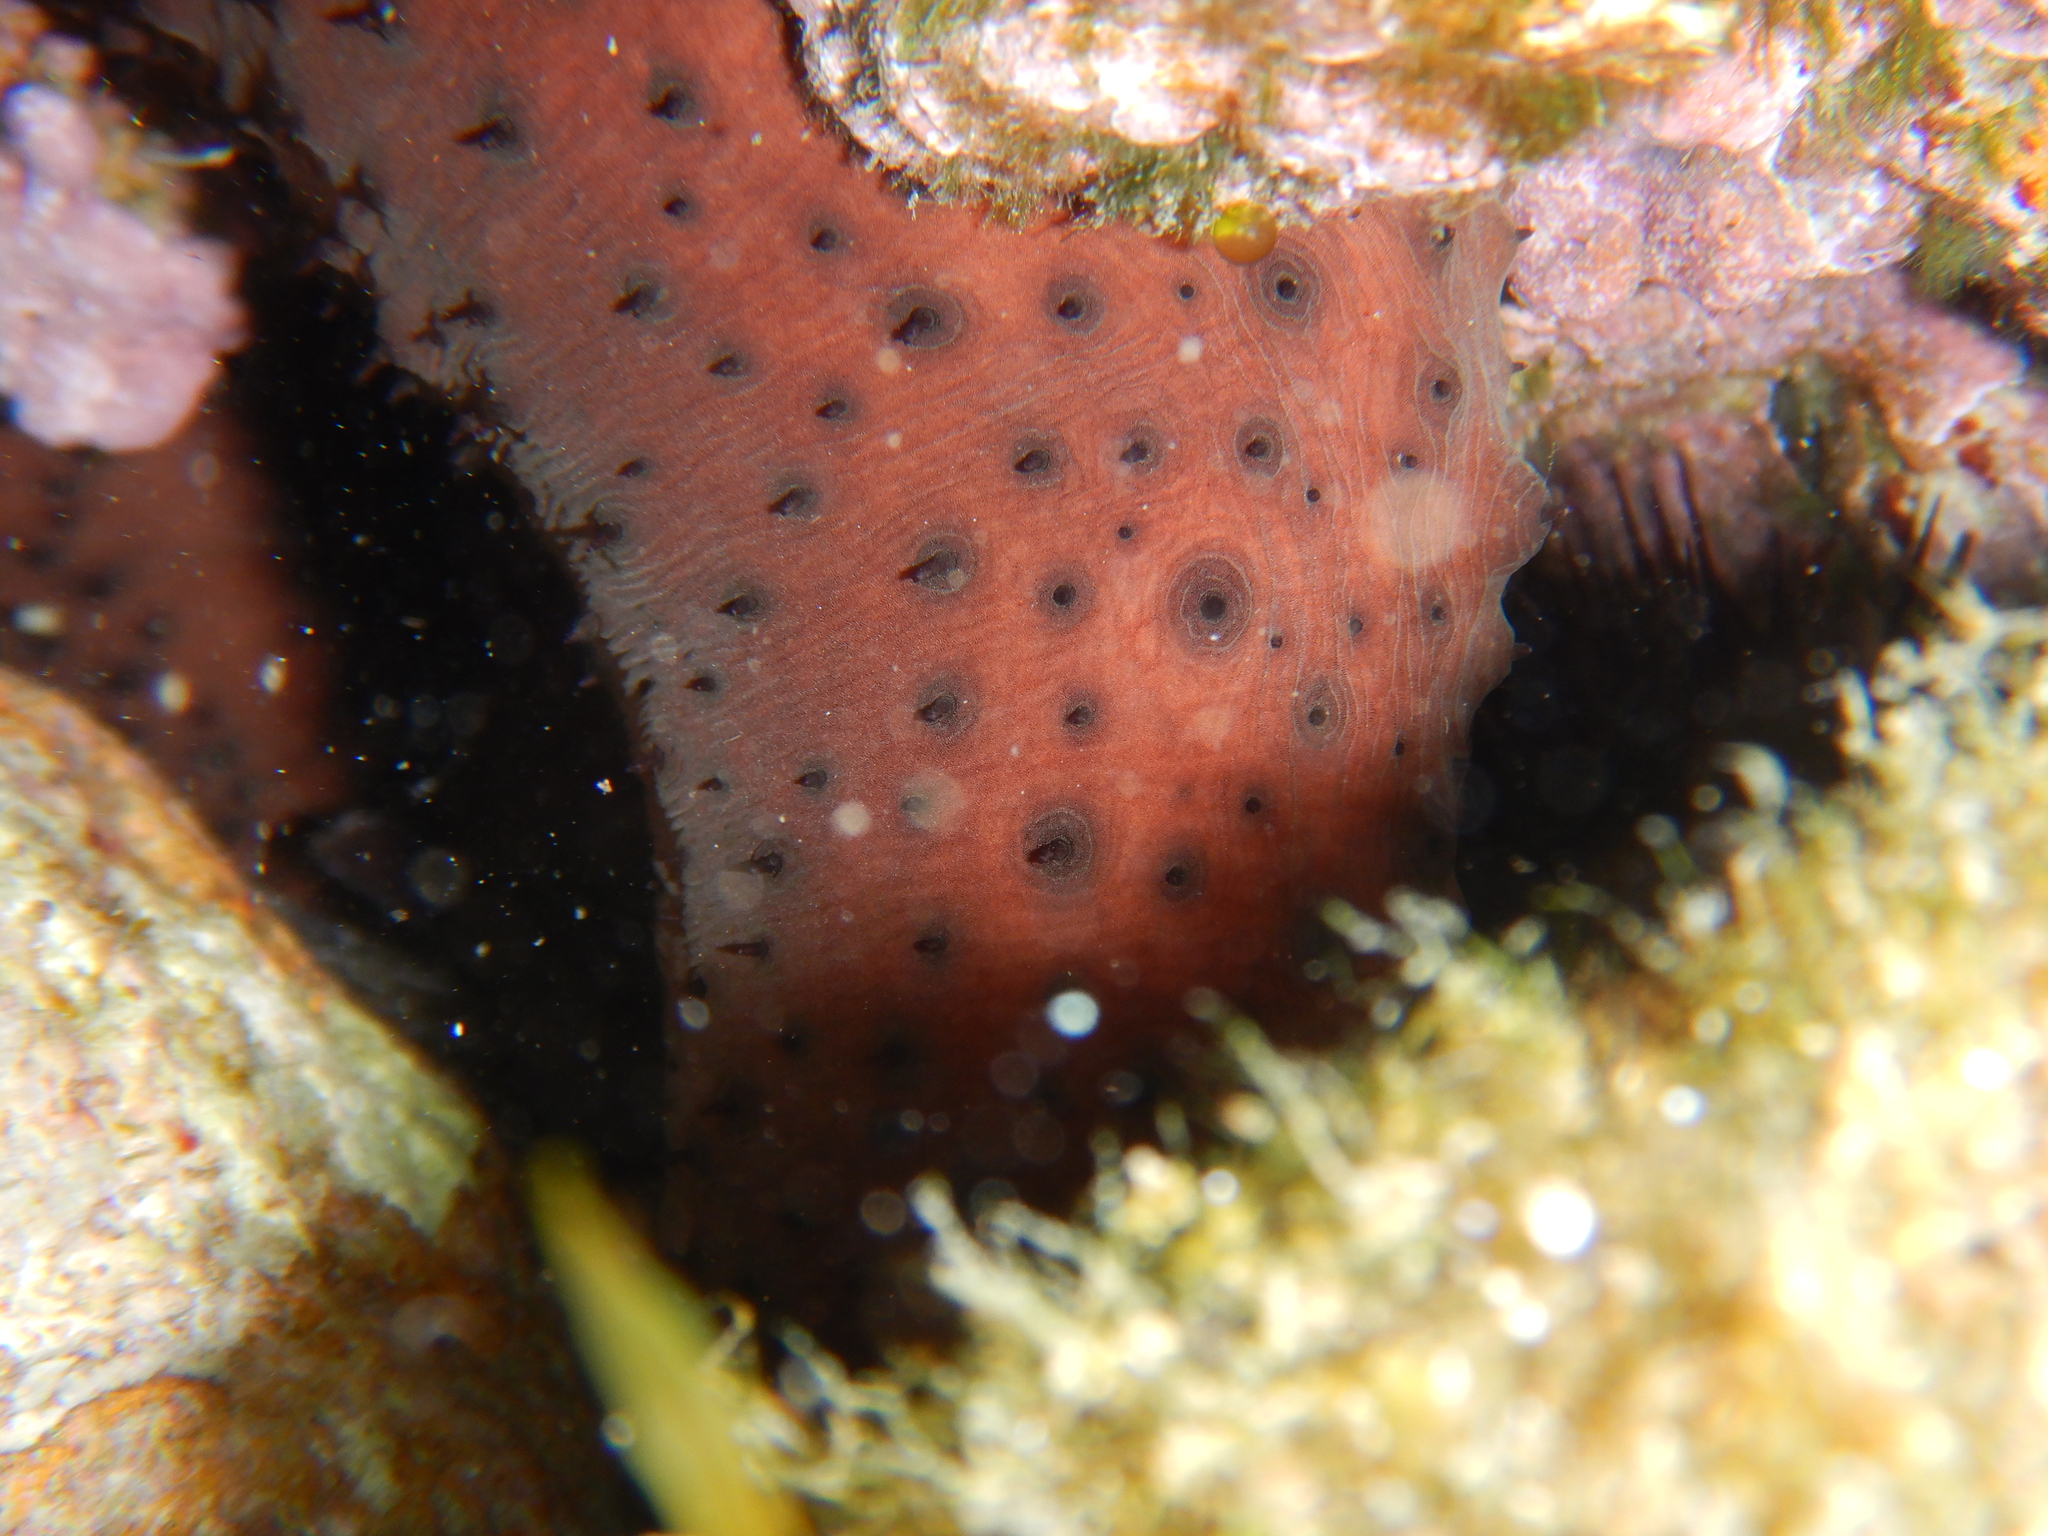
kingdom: Animalia
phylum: Echinodermata
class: Holothuroidea
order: Holothuriida
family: Holothuriidae
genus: Holothuria
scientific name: Holothuria sanctori
